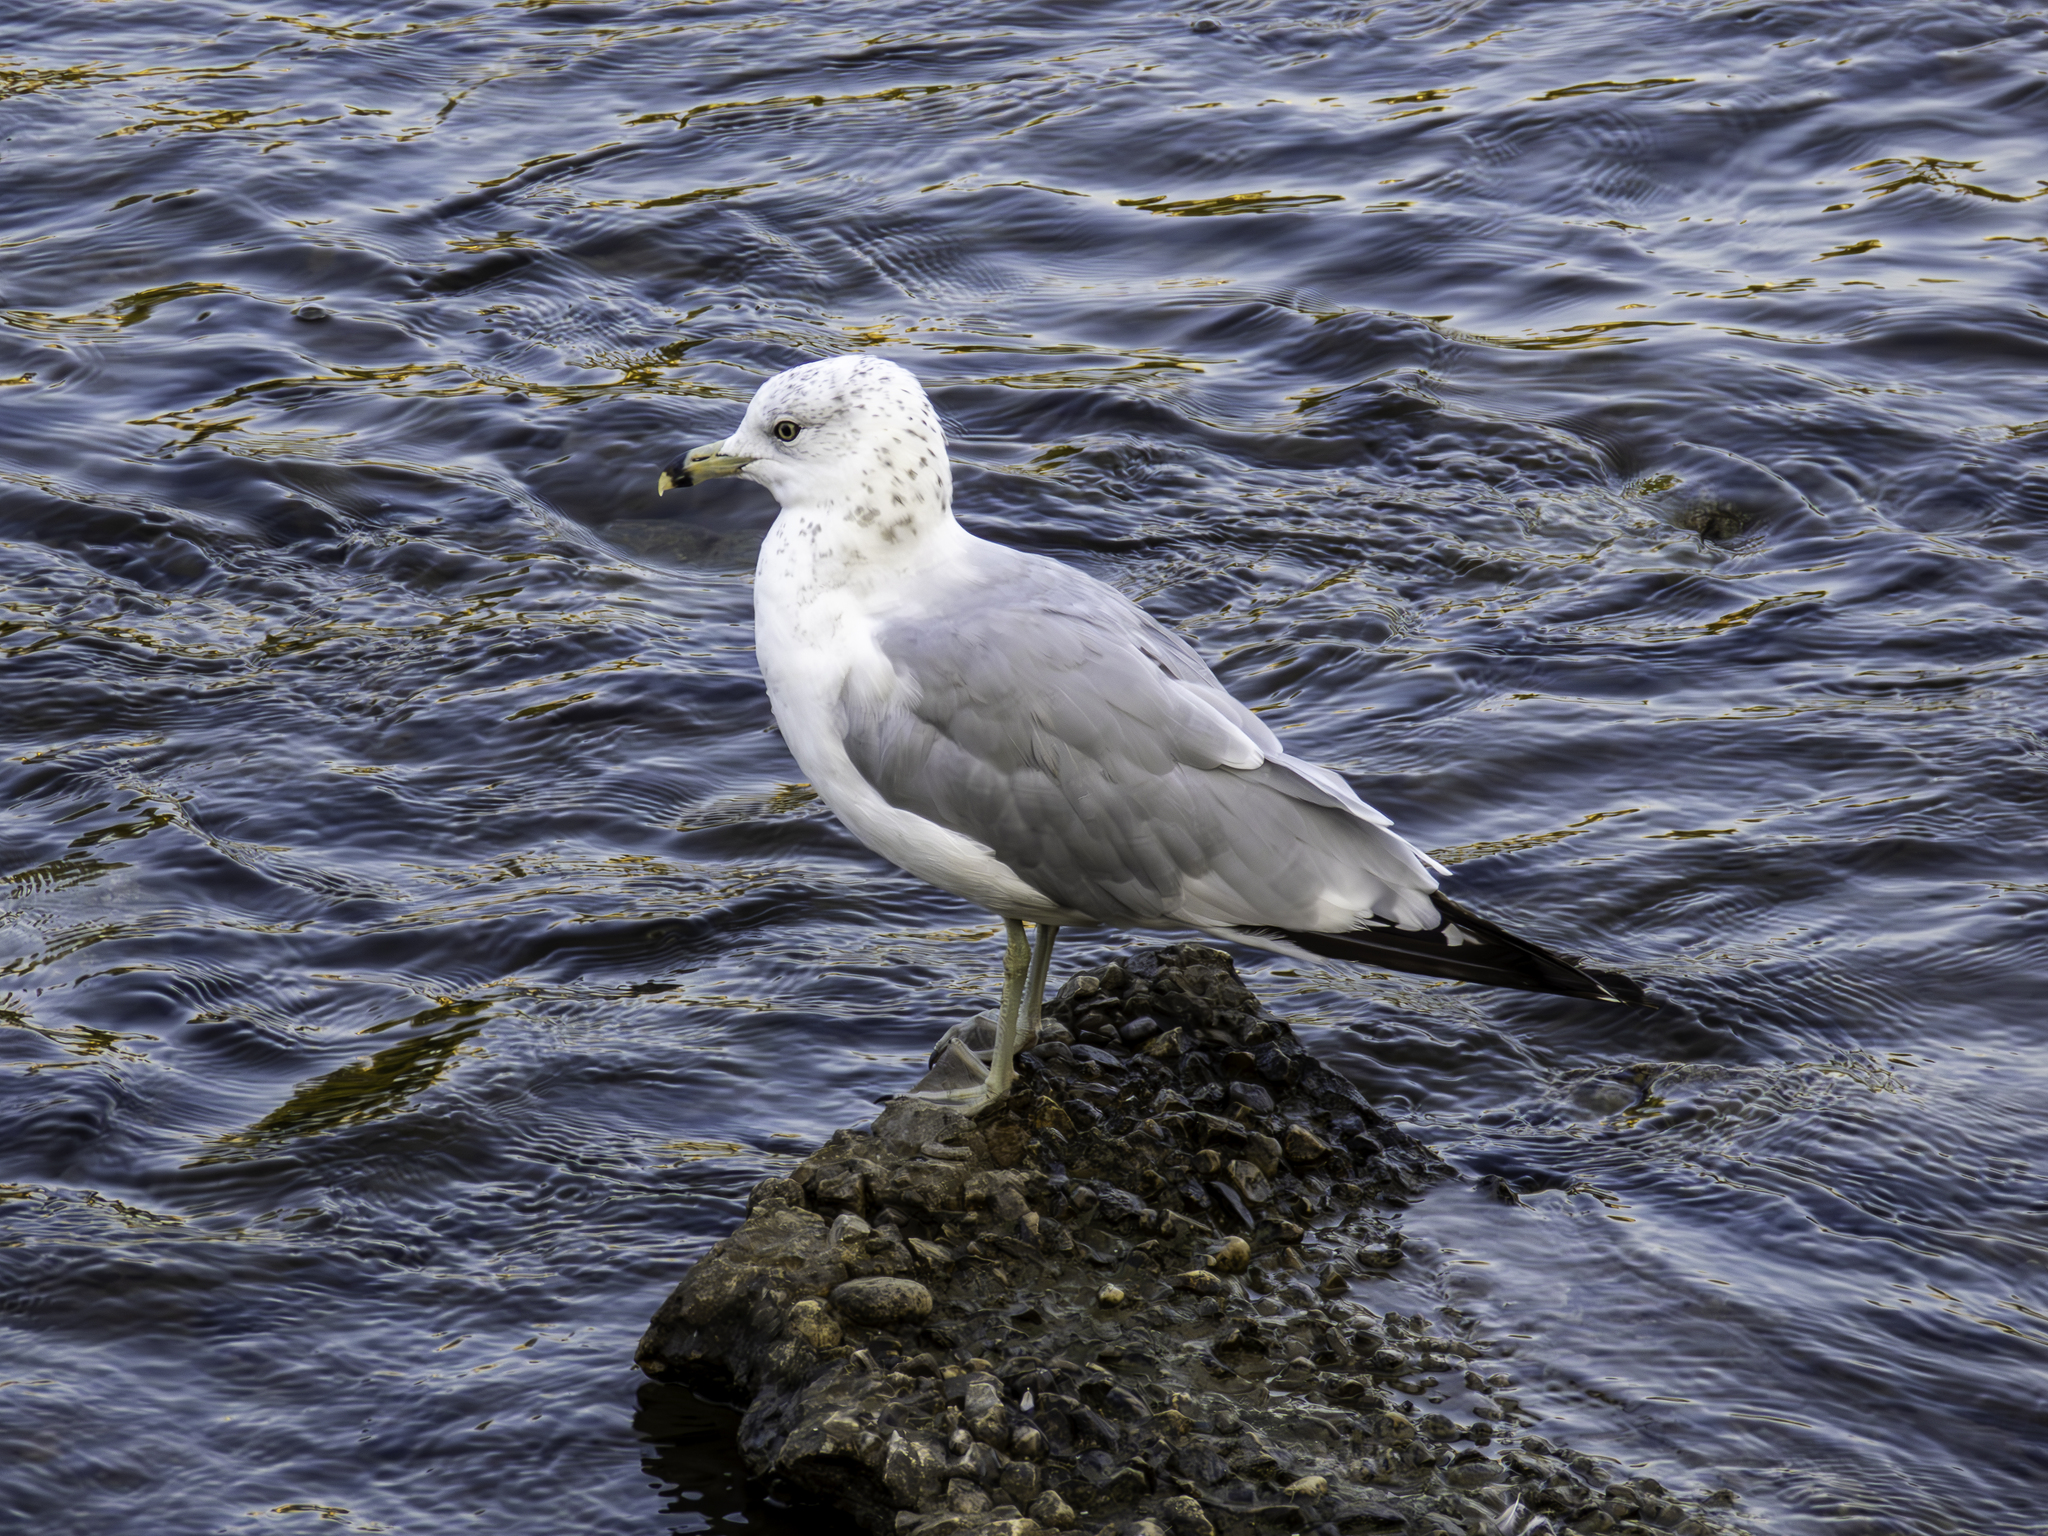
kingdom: Animalia
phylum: Chordata
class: Aves
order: Charadriiformes
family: Laridae
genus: Larus
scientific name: Larus delawarensis
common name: Ring-billed gull
